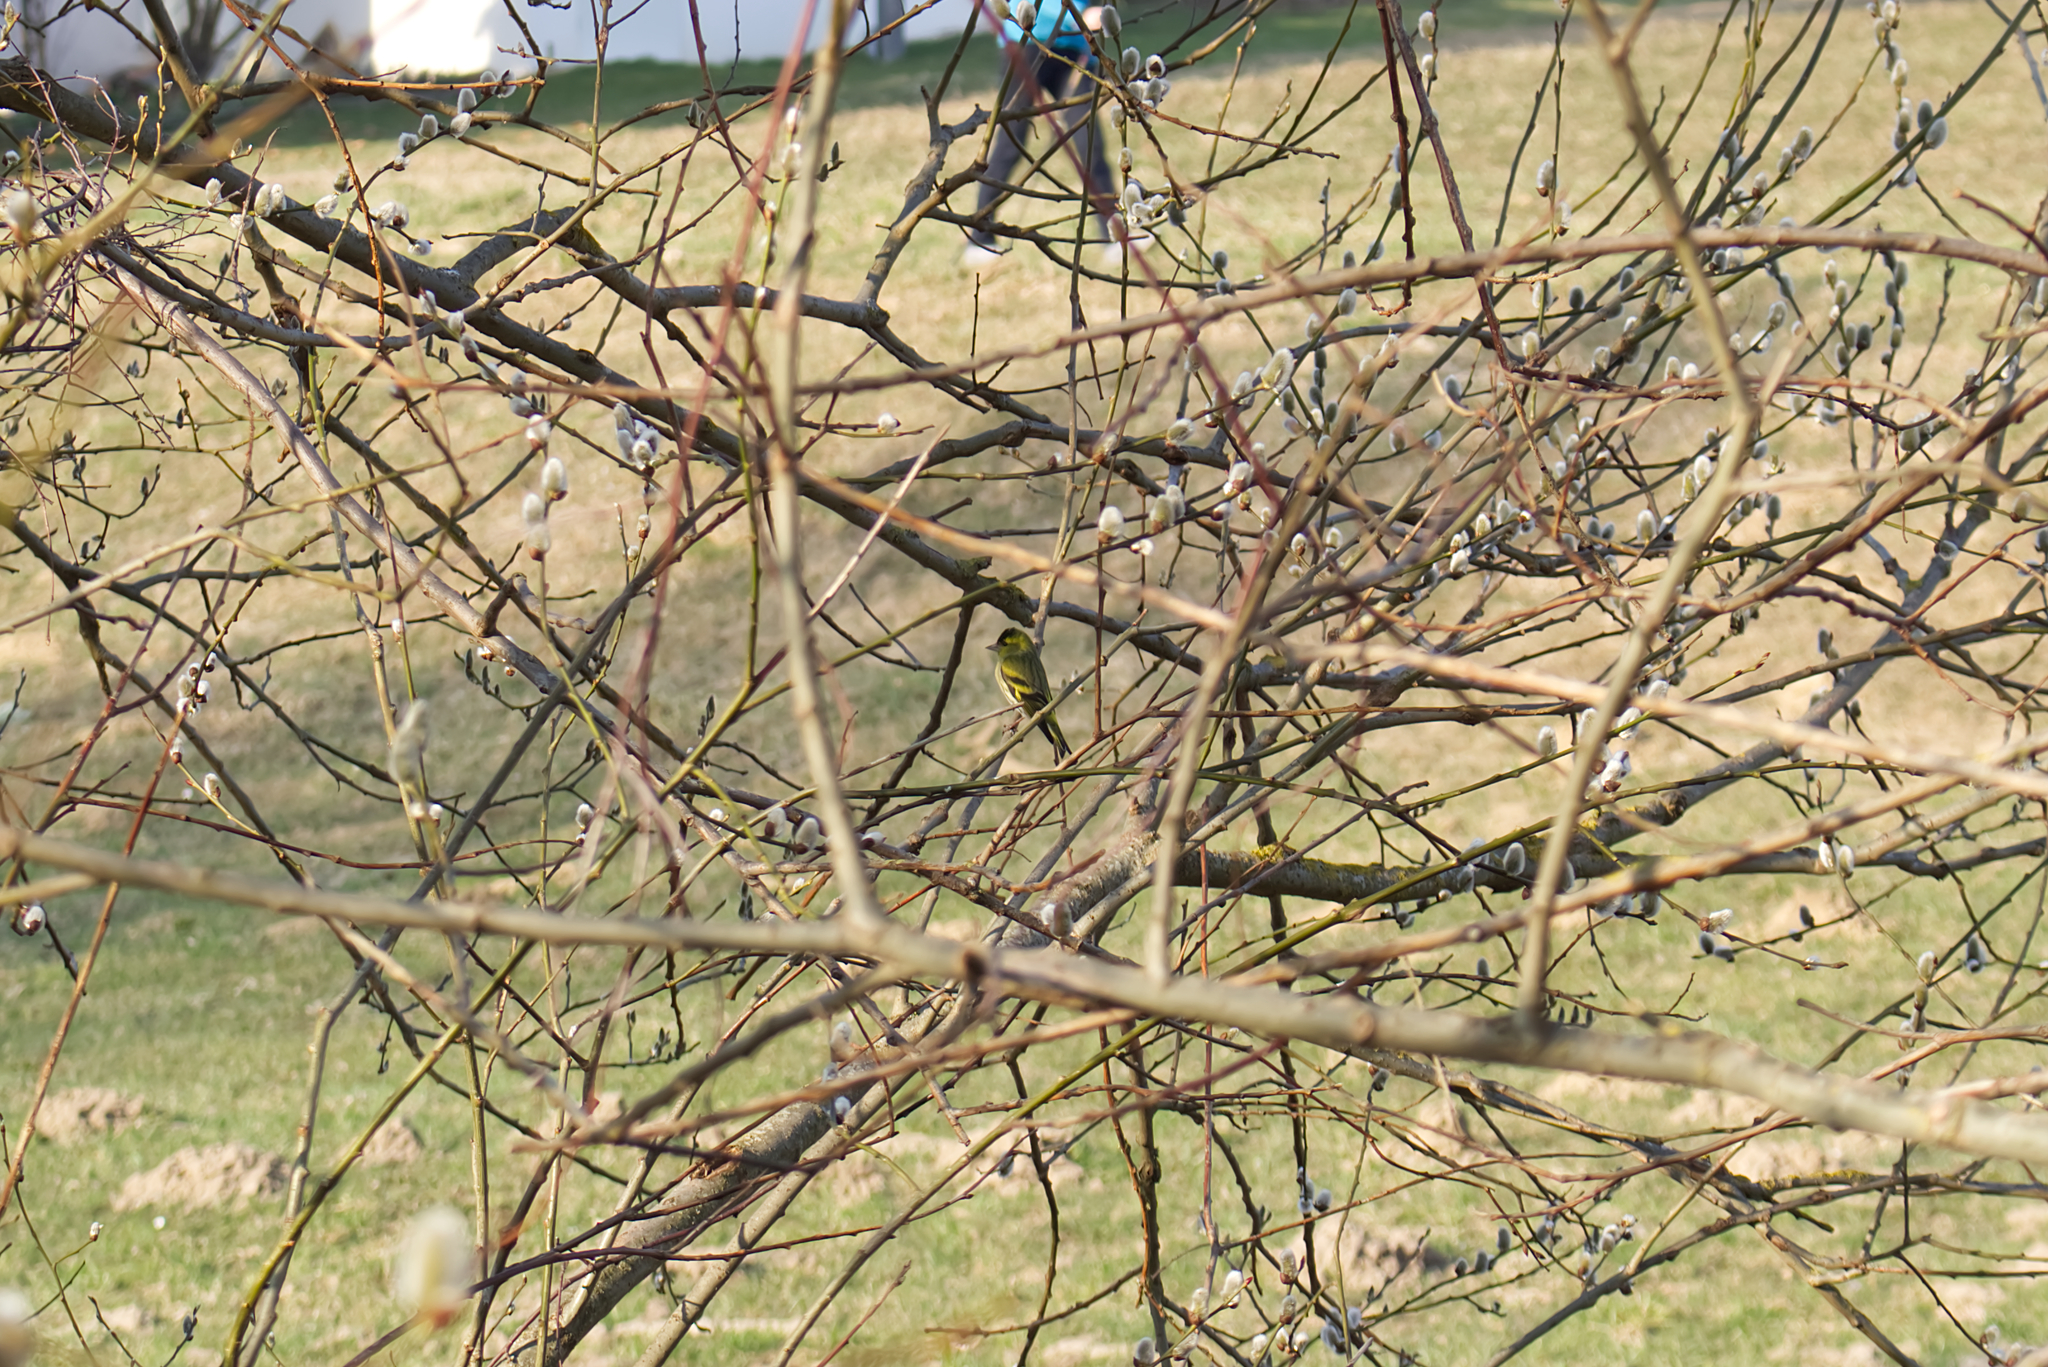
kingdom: Animalia
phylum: Chordata
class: Aves
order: Passeriformes
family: Fringillidae
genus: Spinus
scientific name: Spinus spinus
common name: Eurasian siskin
